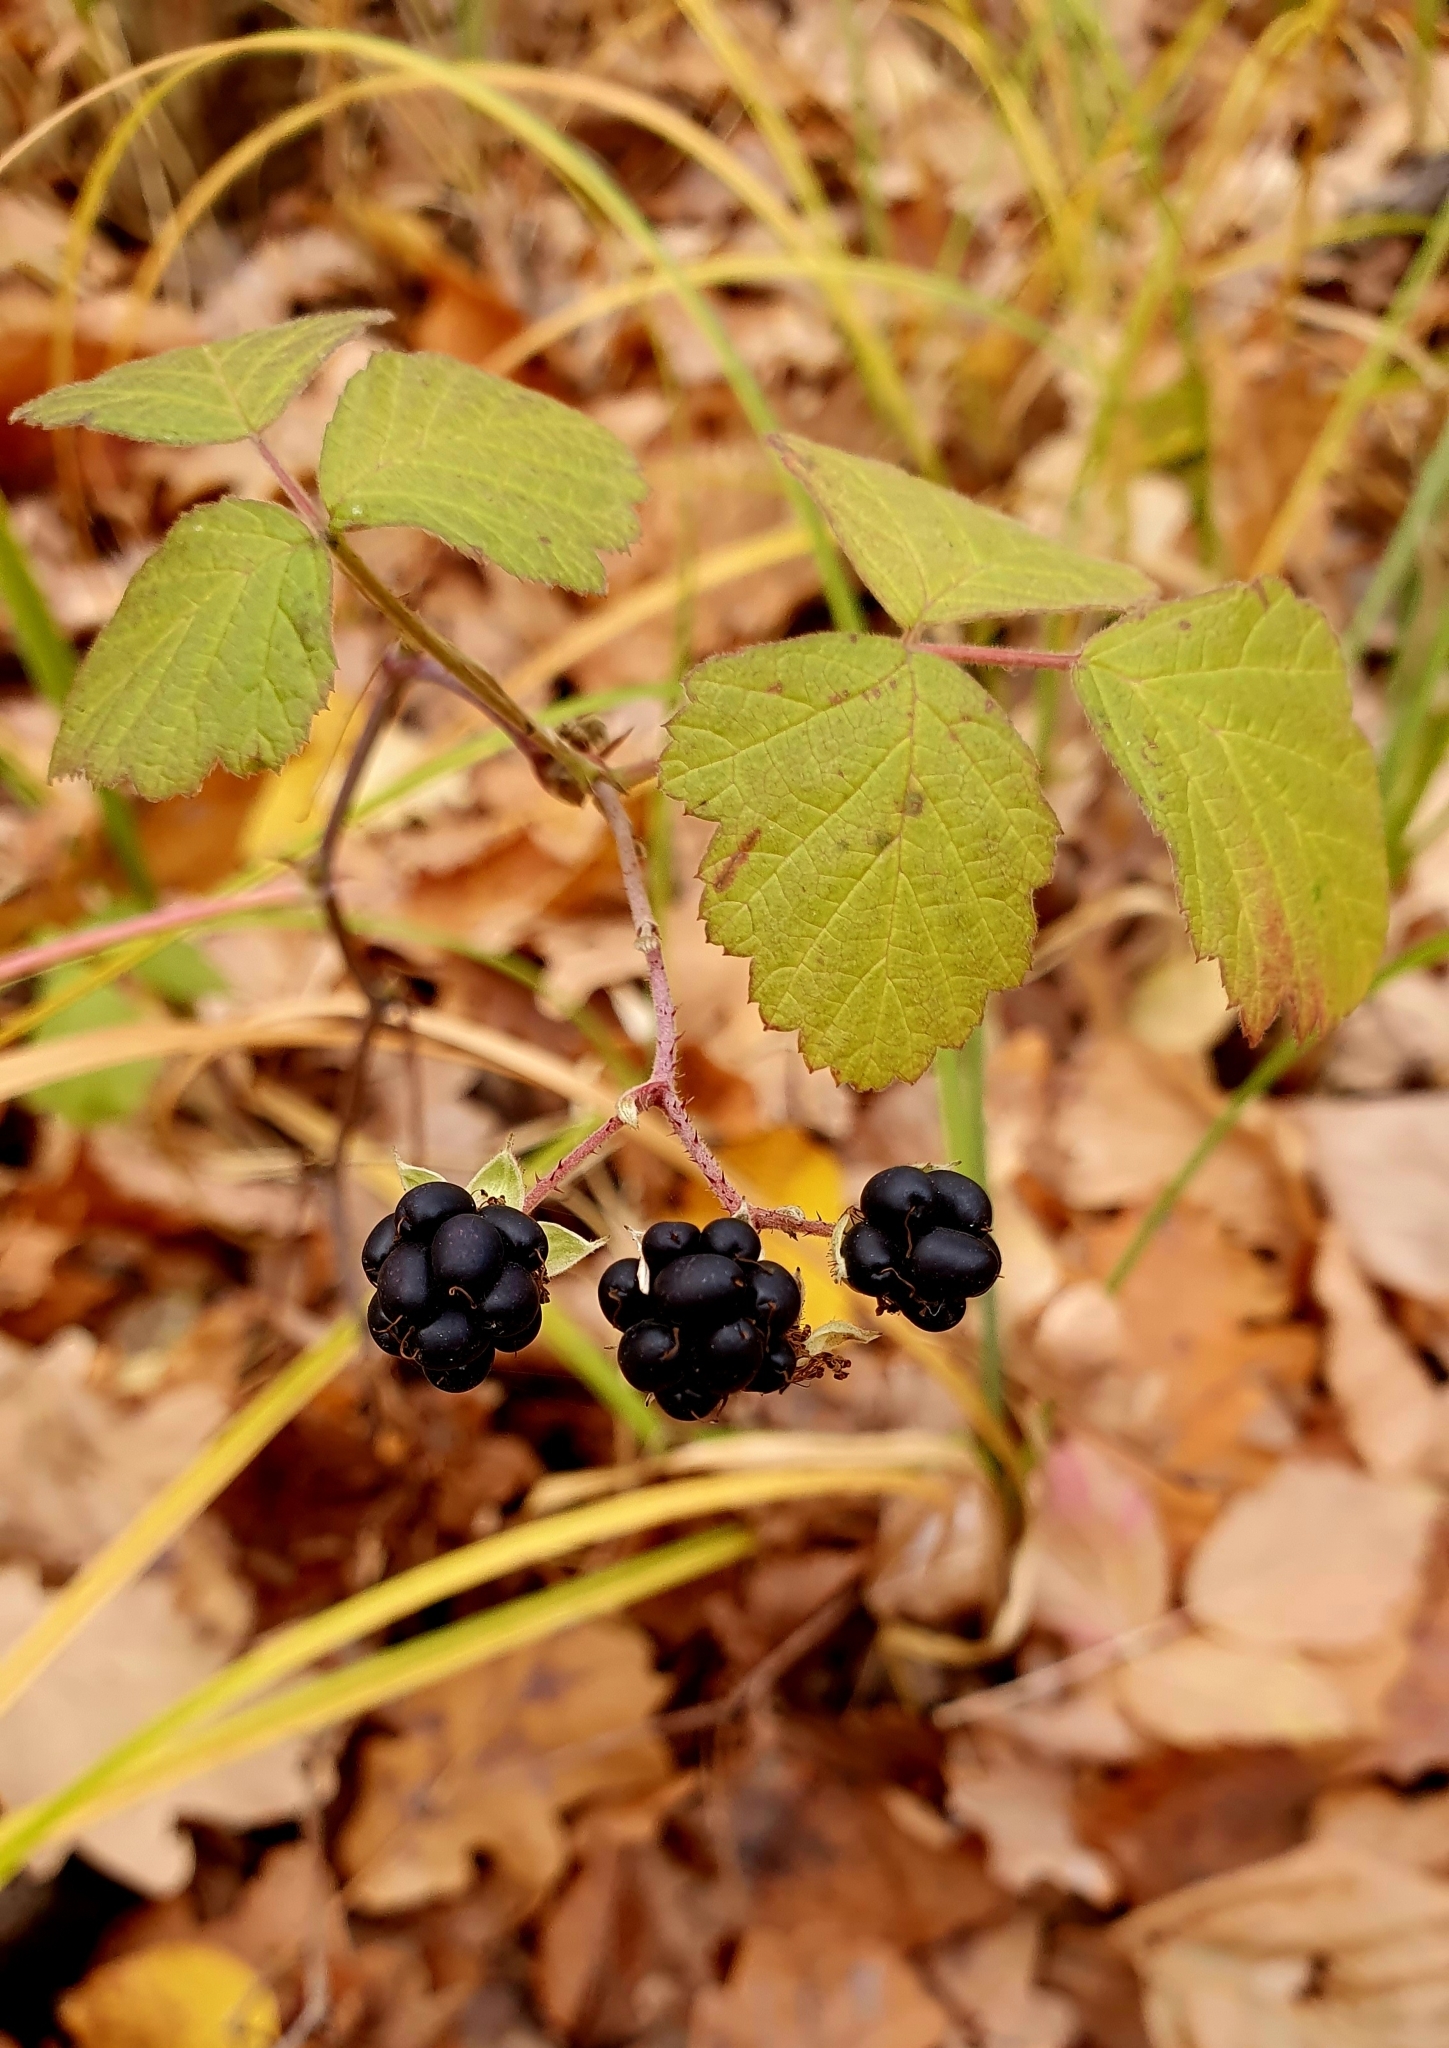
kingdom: Plantae
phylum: Tracheophyta
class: Magnoliopsida
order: Rosales
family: Rosaceae
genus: Rubus
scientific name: Rubus caesius
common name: Dewberry
